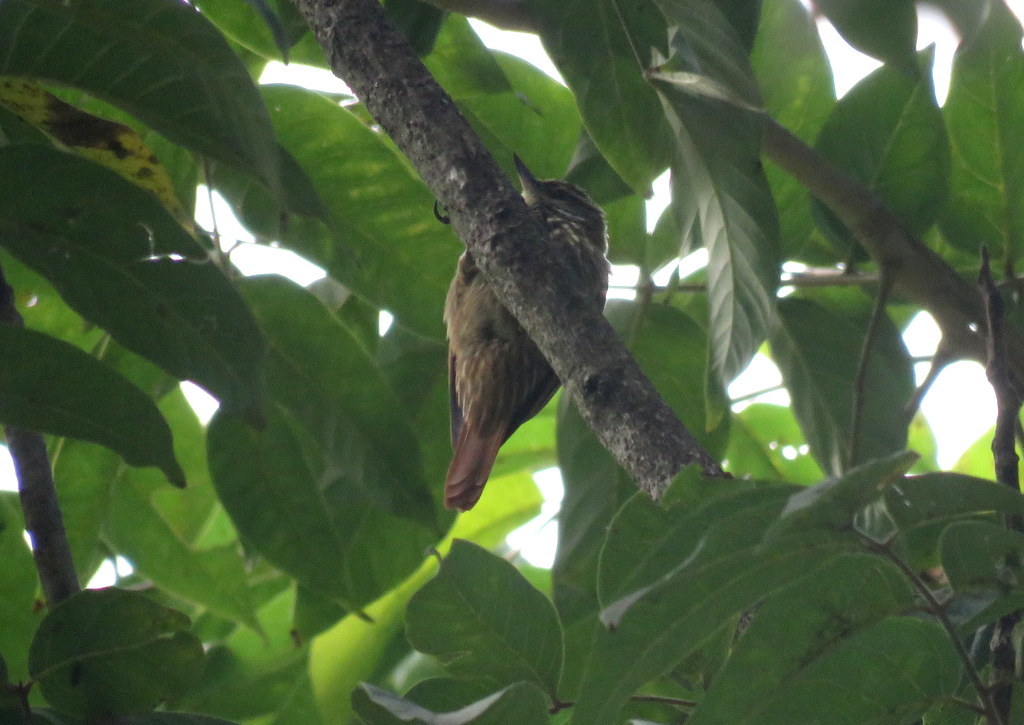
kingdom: Animalia
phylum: Chordata
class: Aves
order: Passeriformes
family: Furnariidae
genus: Xenops
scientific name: Xenops rutilans
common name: Streaked xenops
